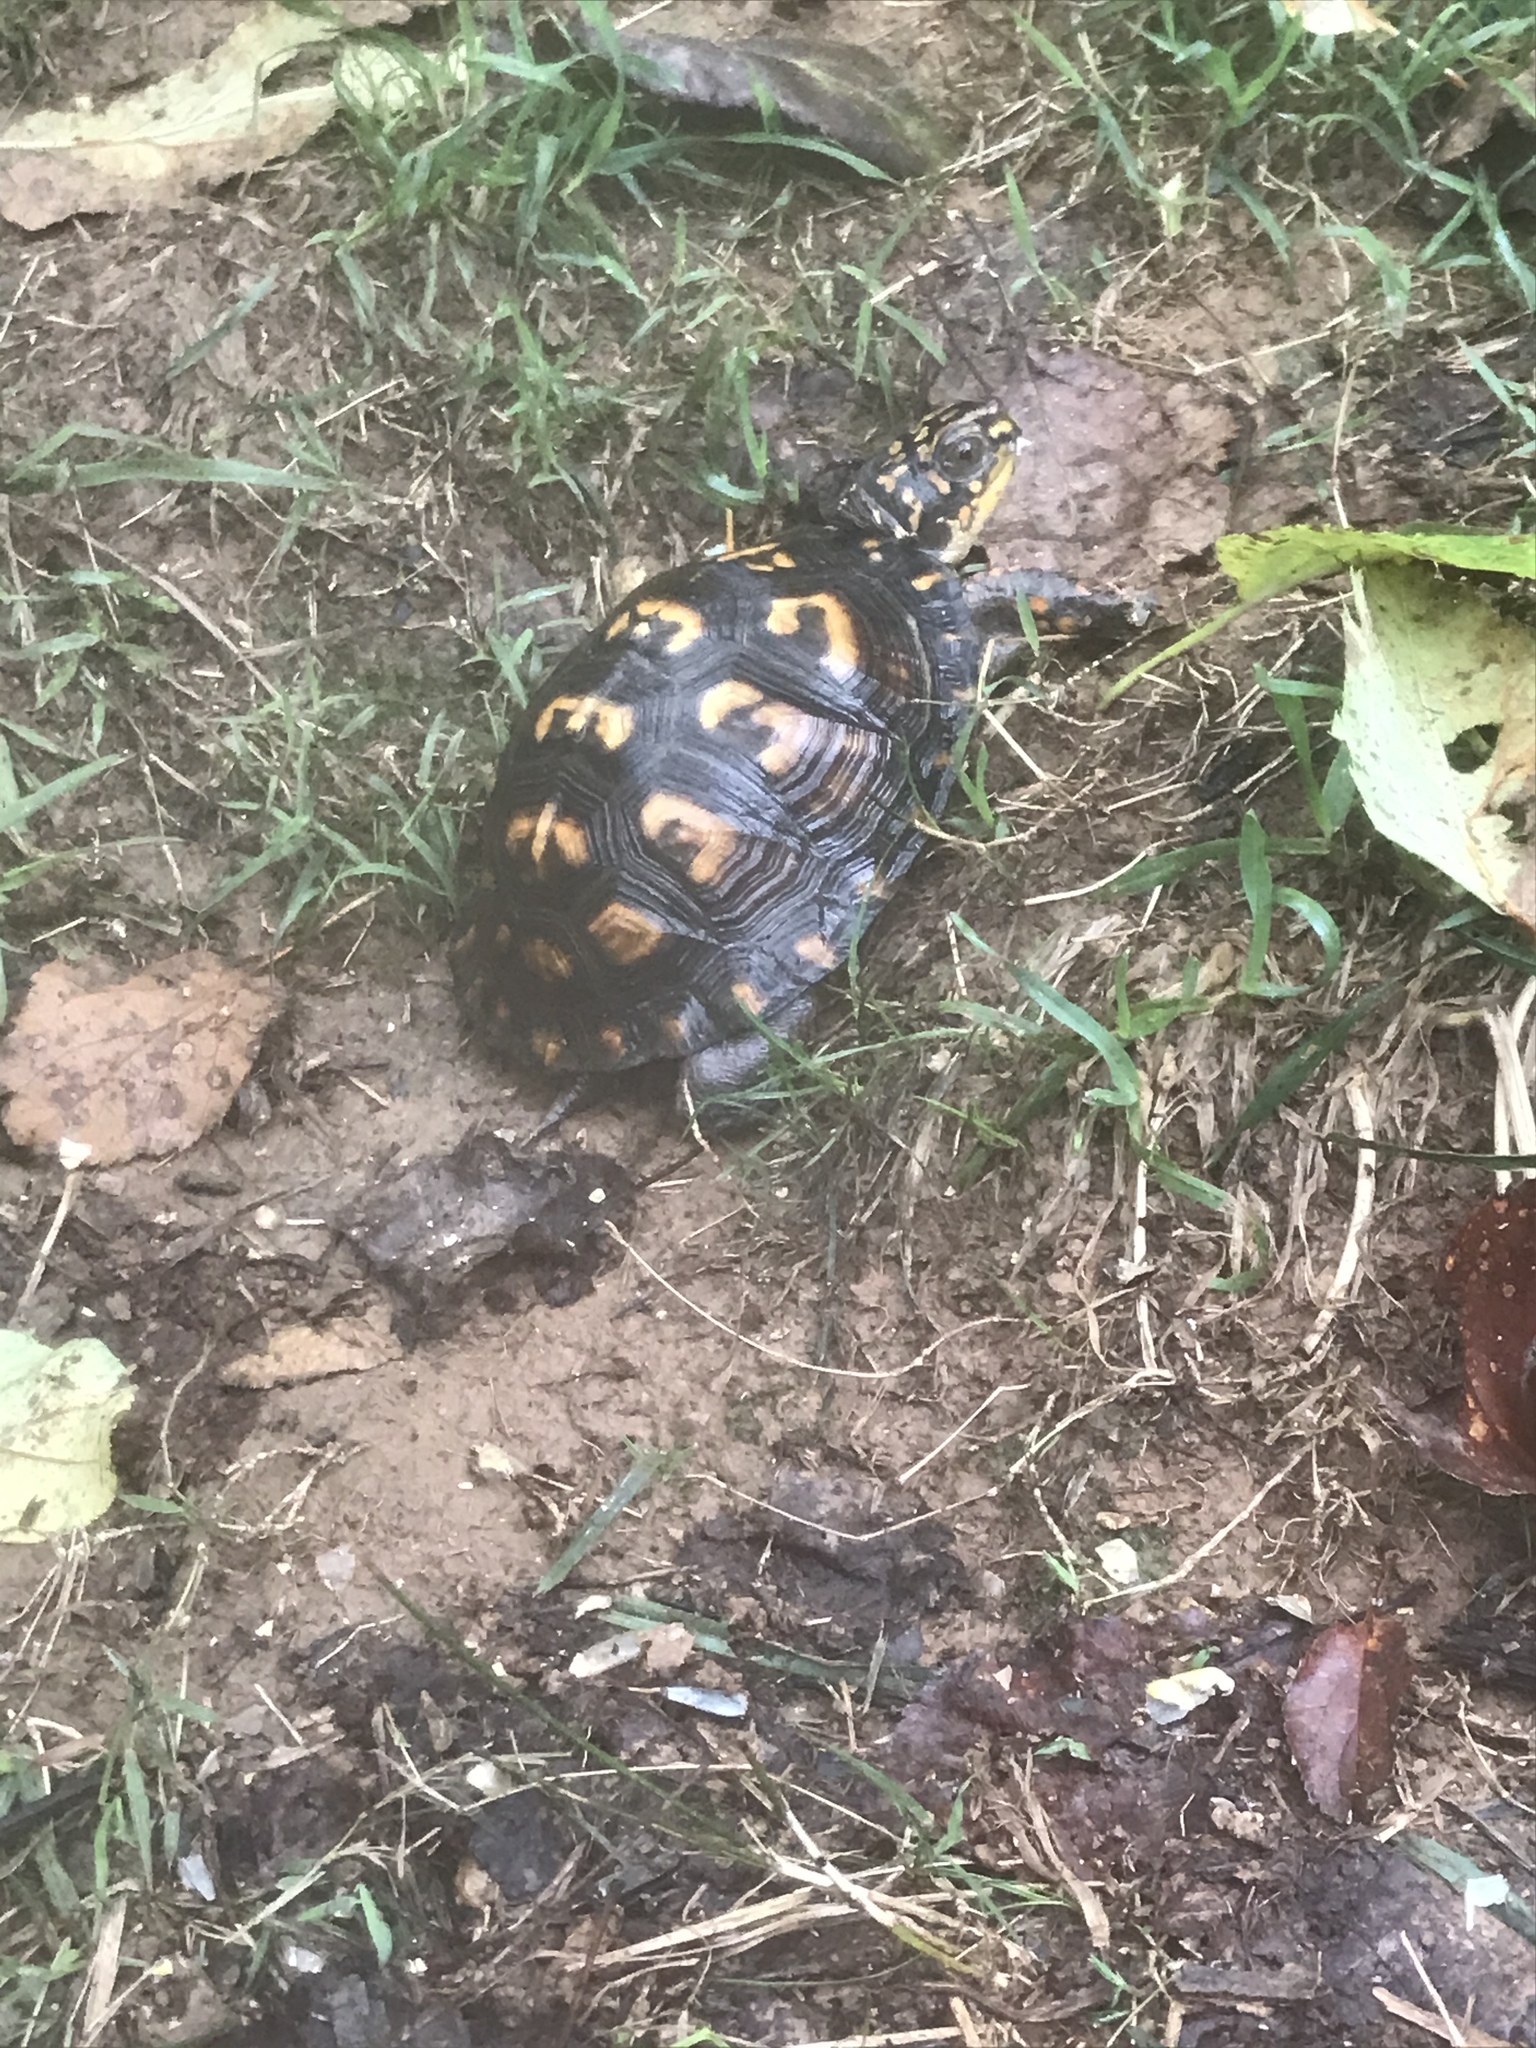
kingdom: Animalia
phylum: Chordata
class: Testudines
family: Emydidae
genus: Terrapene
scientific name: Terrapene carolina
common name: Common box turtle
